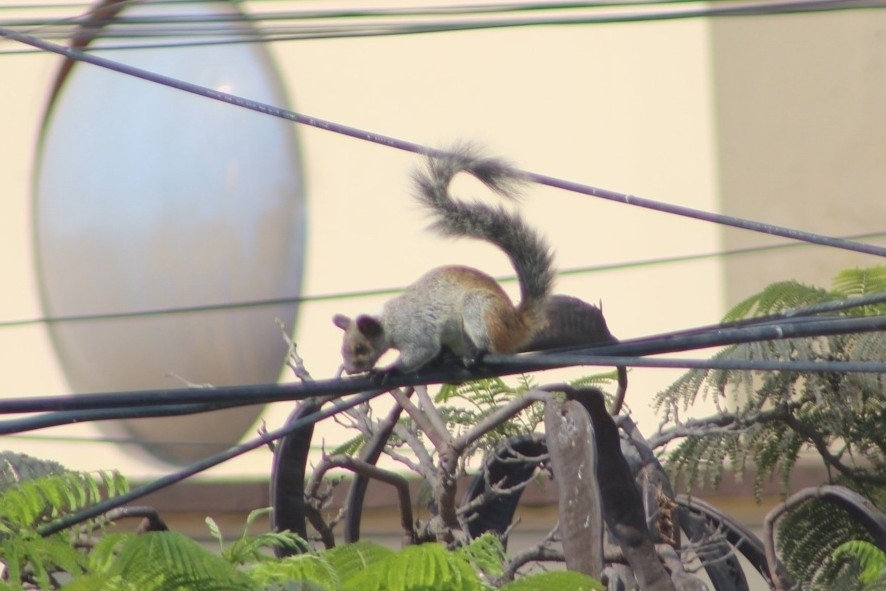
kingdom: Animalia
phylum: Chordata
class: Mammalia
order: Rodentia
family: Sciuridae
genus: Sciurus
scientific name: Sciurus stramineus
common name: Guayaquil squirrel
